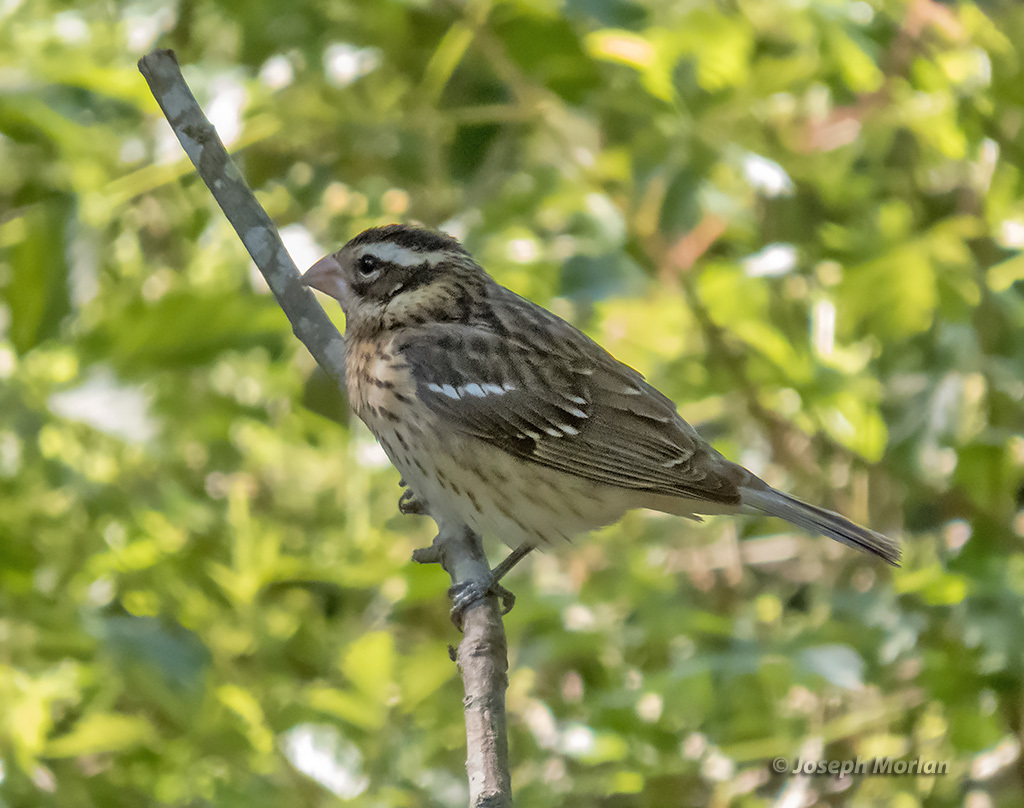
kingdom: Animalia
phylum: Chordata
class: Aves
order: Passeriformes
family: Cardinalidae
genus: Pheucticus
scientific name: Pheucticus ludovicianus
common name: Rose-breasted grosbeak
